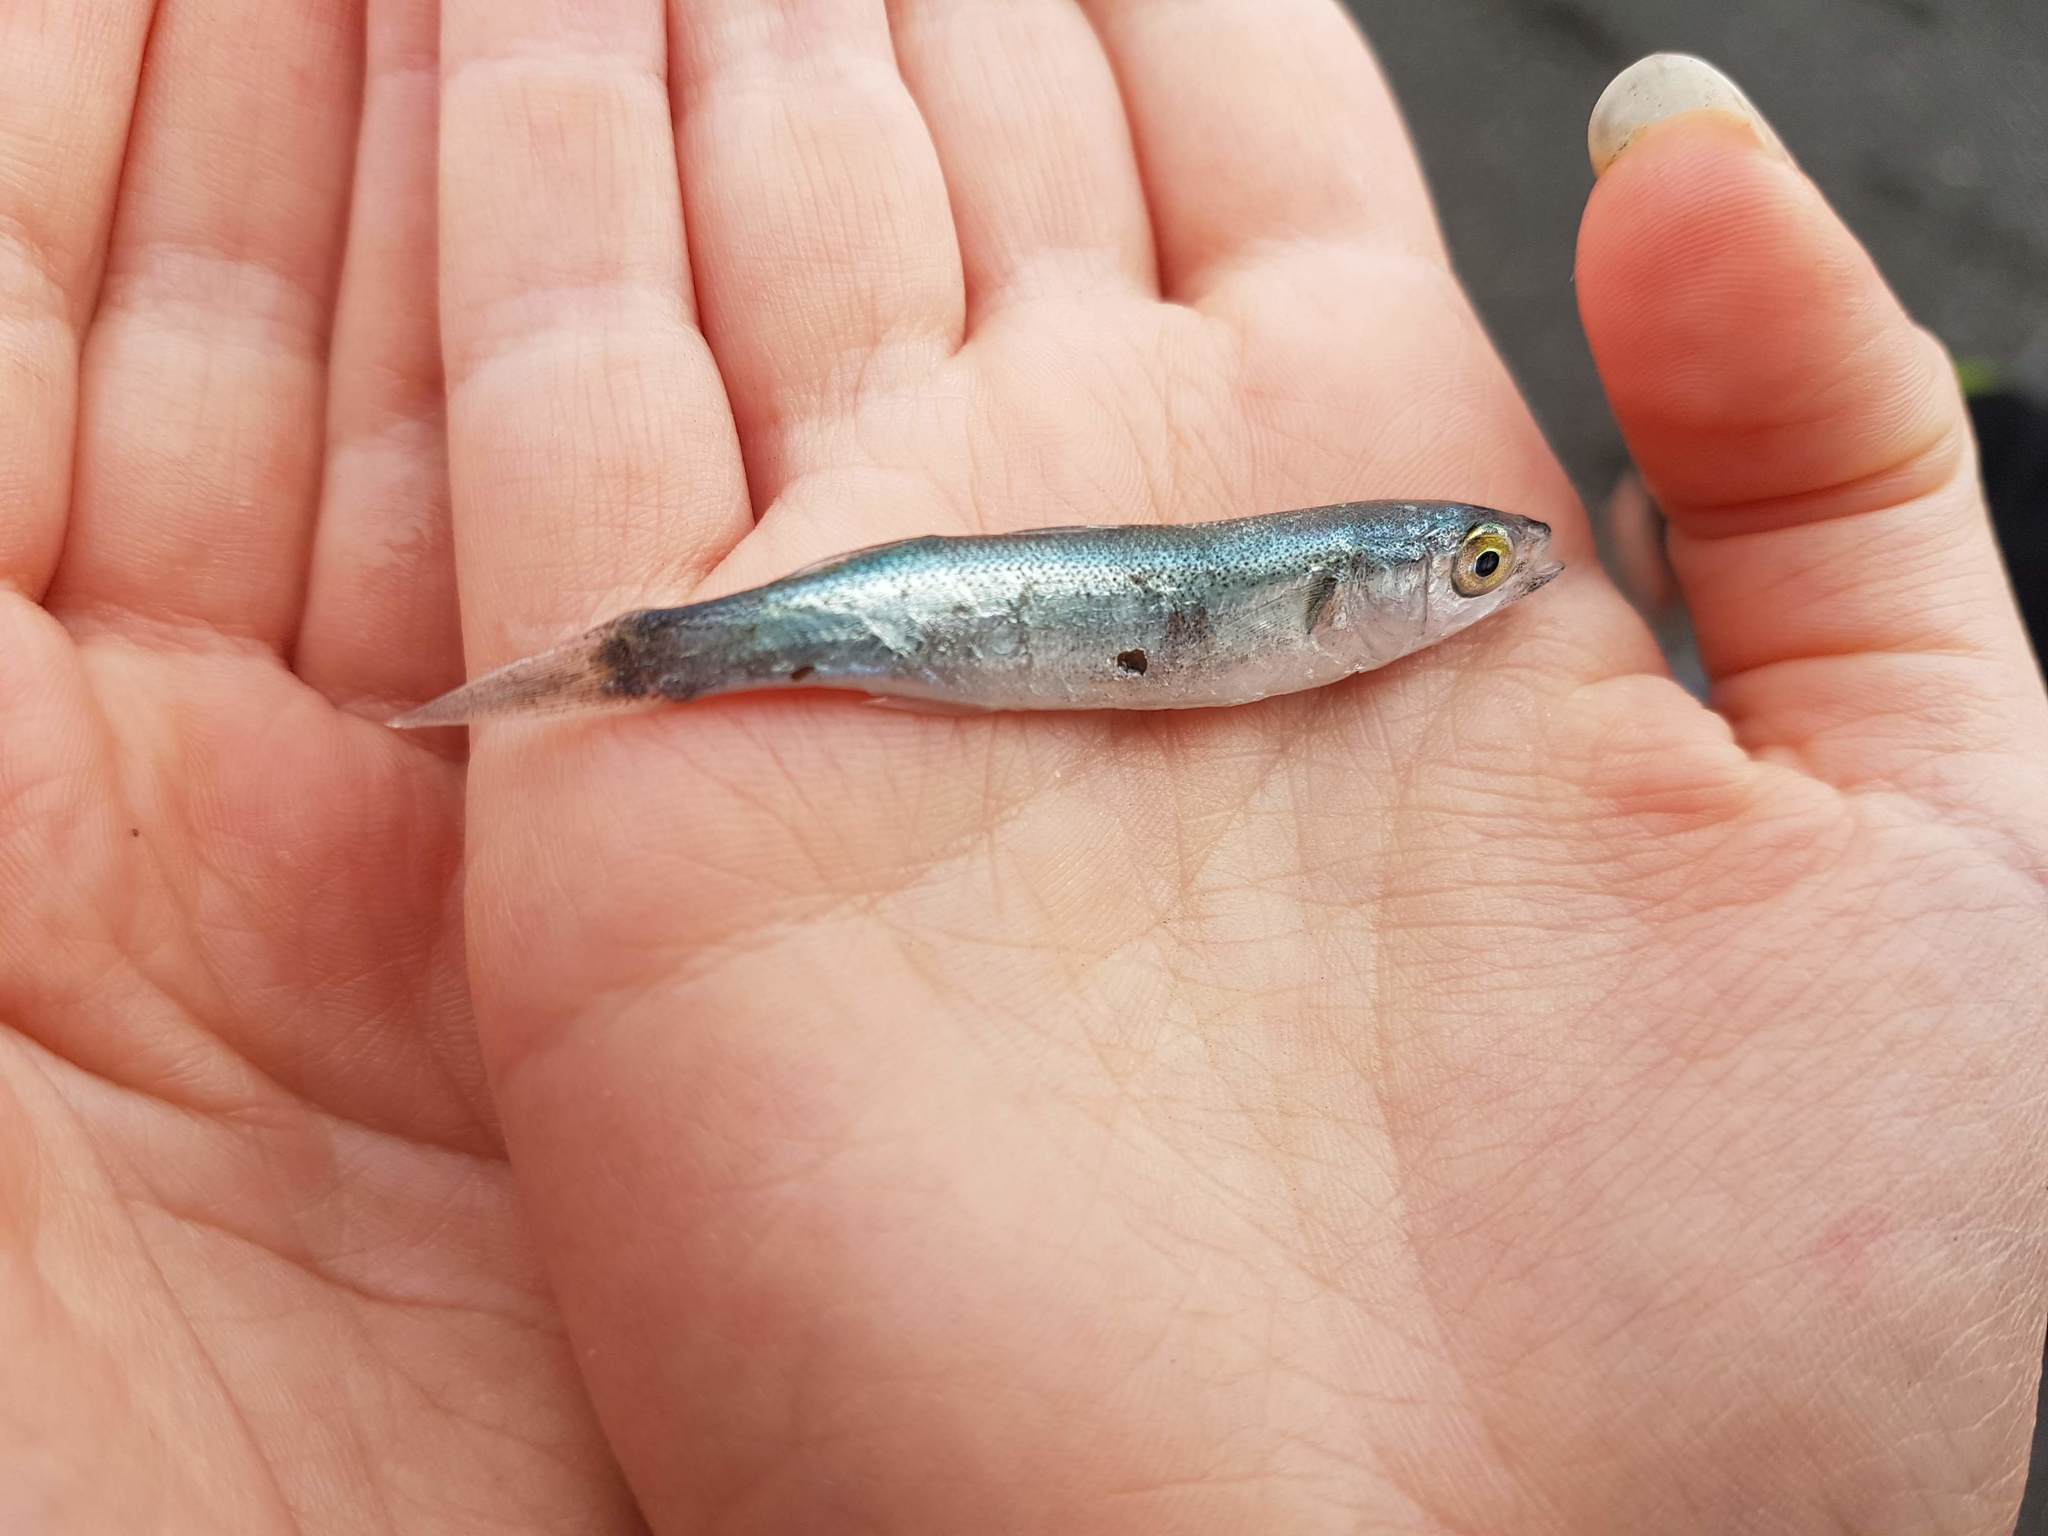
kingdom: Animalia
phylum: Chordata
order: Mugiliformes
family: Mugilidae
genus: Aldrichetta
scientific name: Aldrichetta forsteri
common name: Yellow-eye mullet
